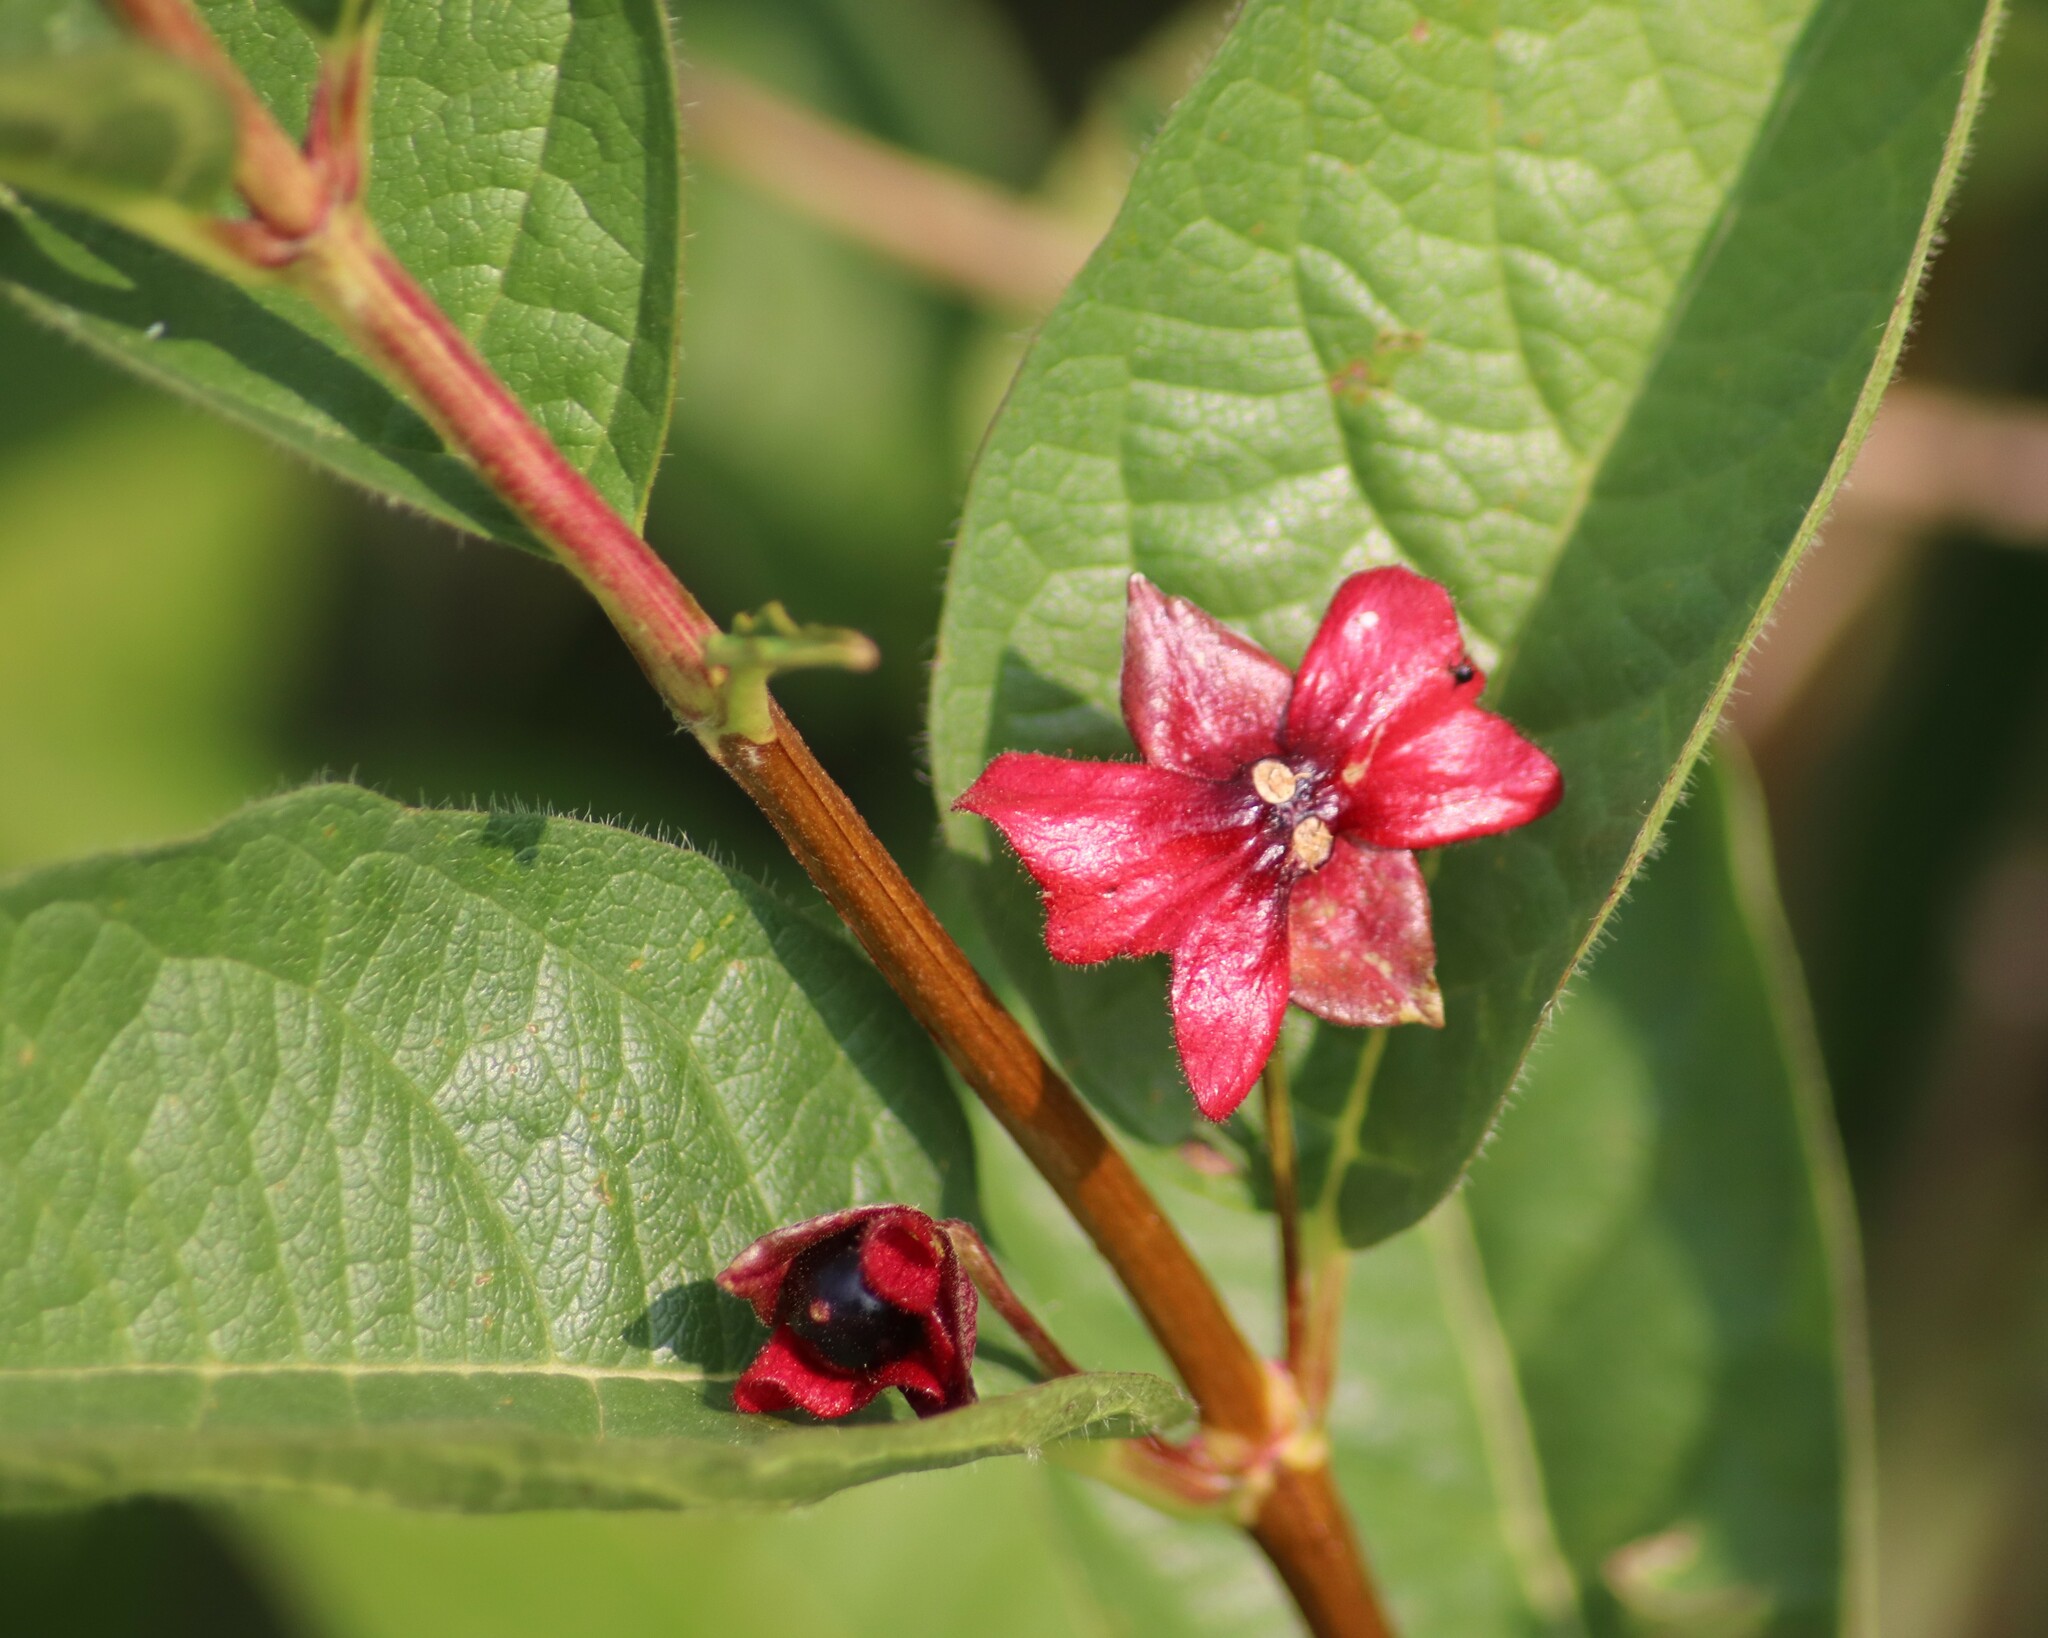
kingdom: Plantae
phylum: Tracheophyta
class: Magnoliopsida
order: Dipsacales
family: Caprifoliaceae
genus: Lonicera
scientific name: Lonicera involucrata
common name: Californian honeysuckle
